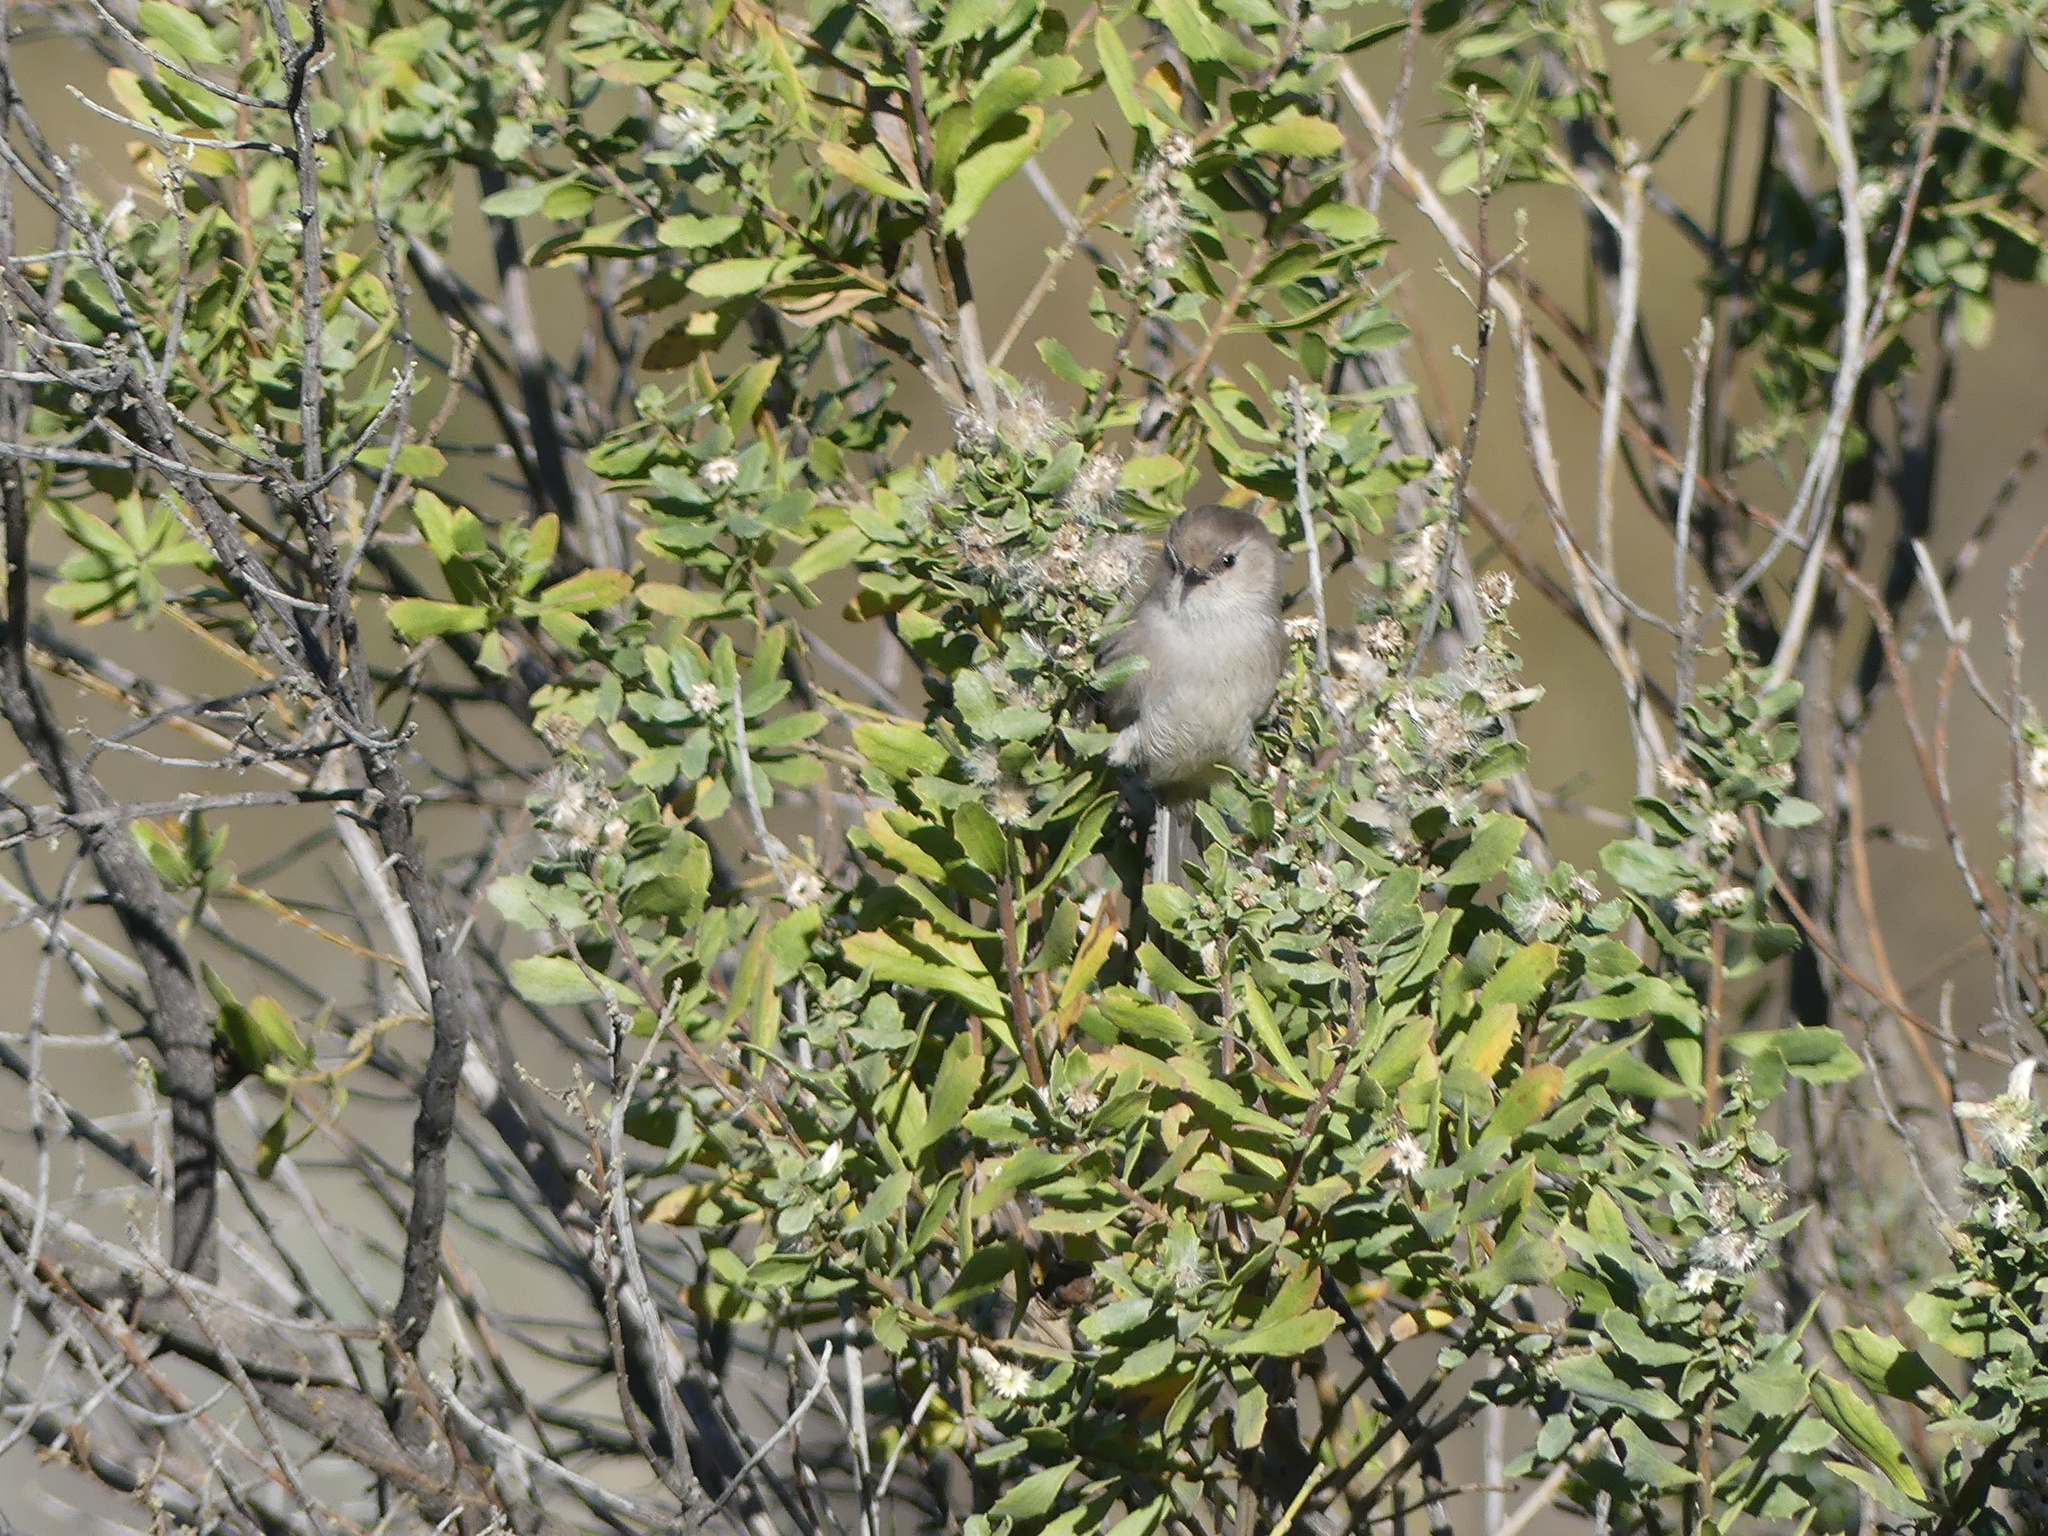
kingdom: Animalia
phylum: Chordata
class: Aves
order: Passeriformes
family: Aegithalidae
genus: Psaltriparus
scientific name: Psaltriparus minimus
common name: American bushtit
